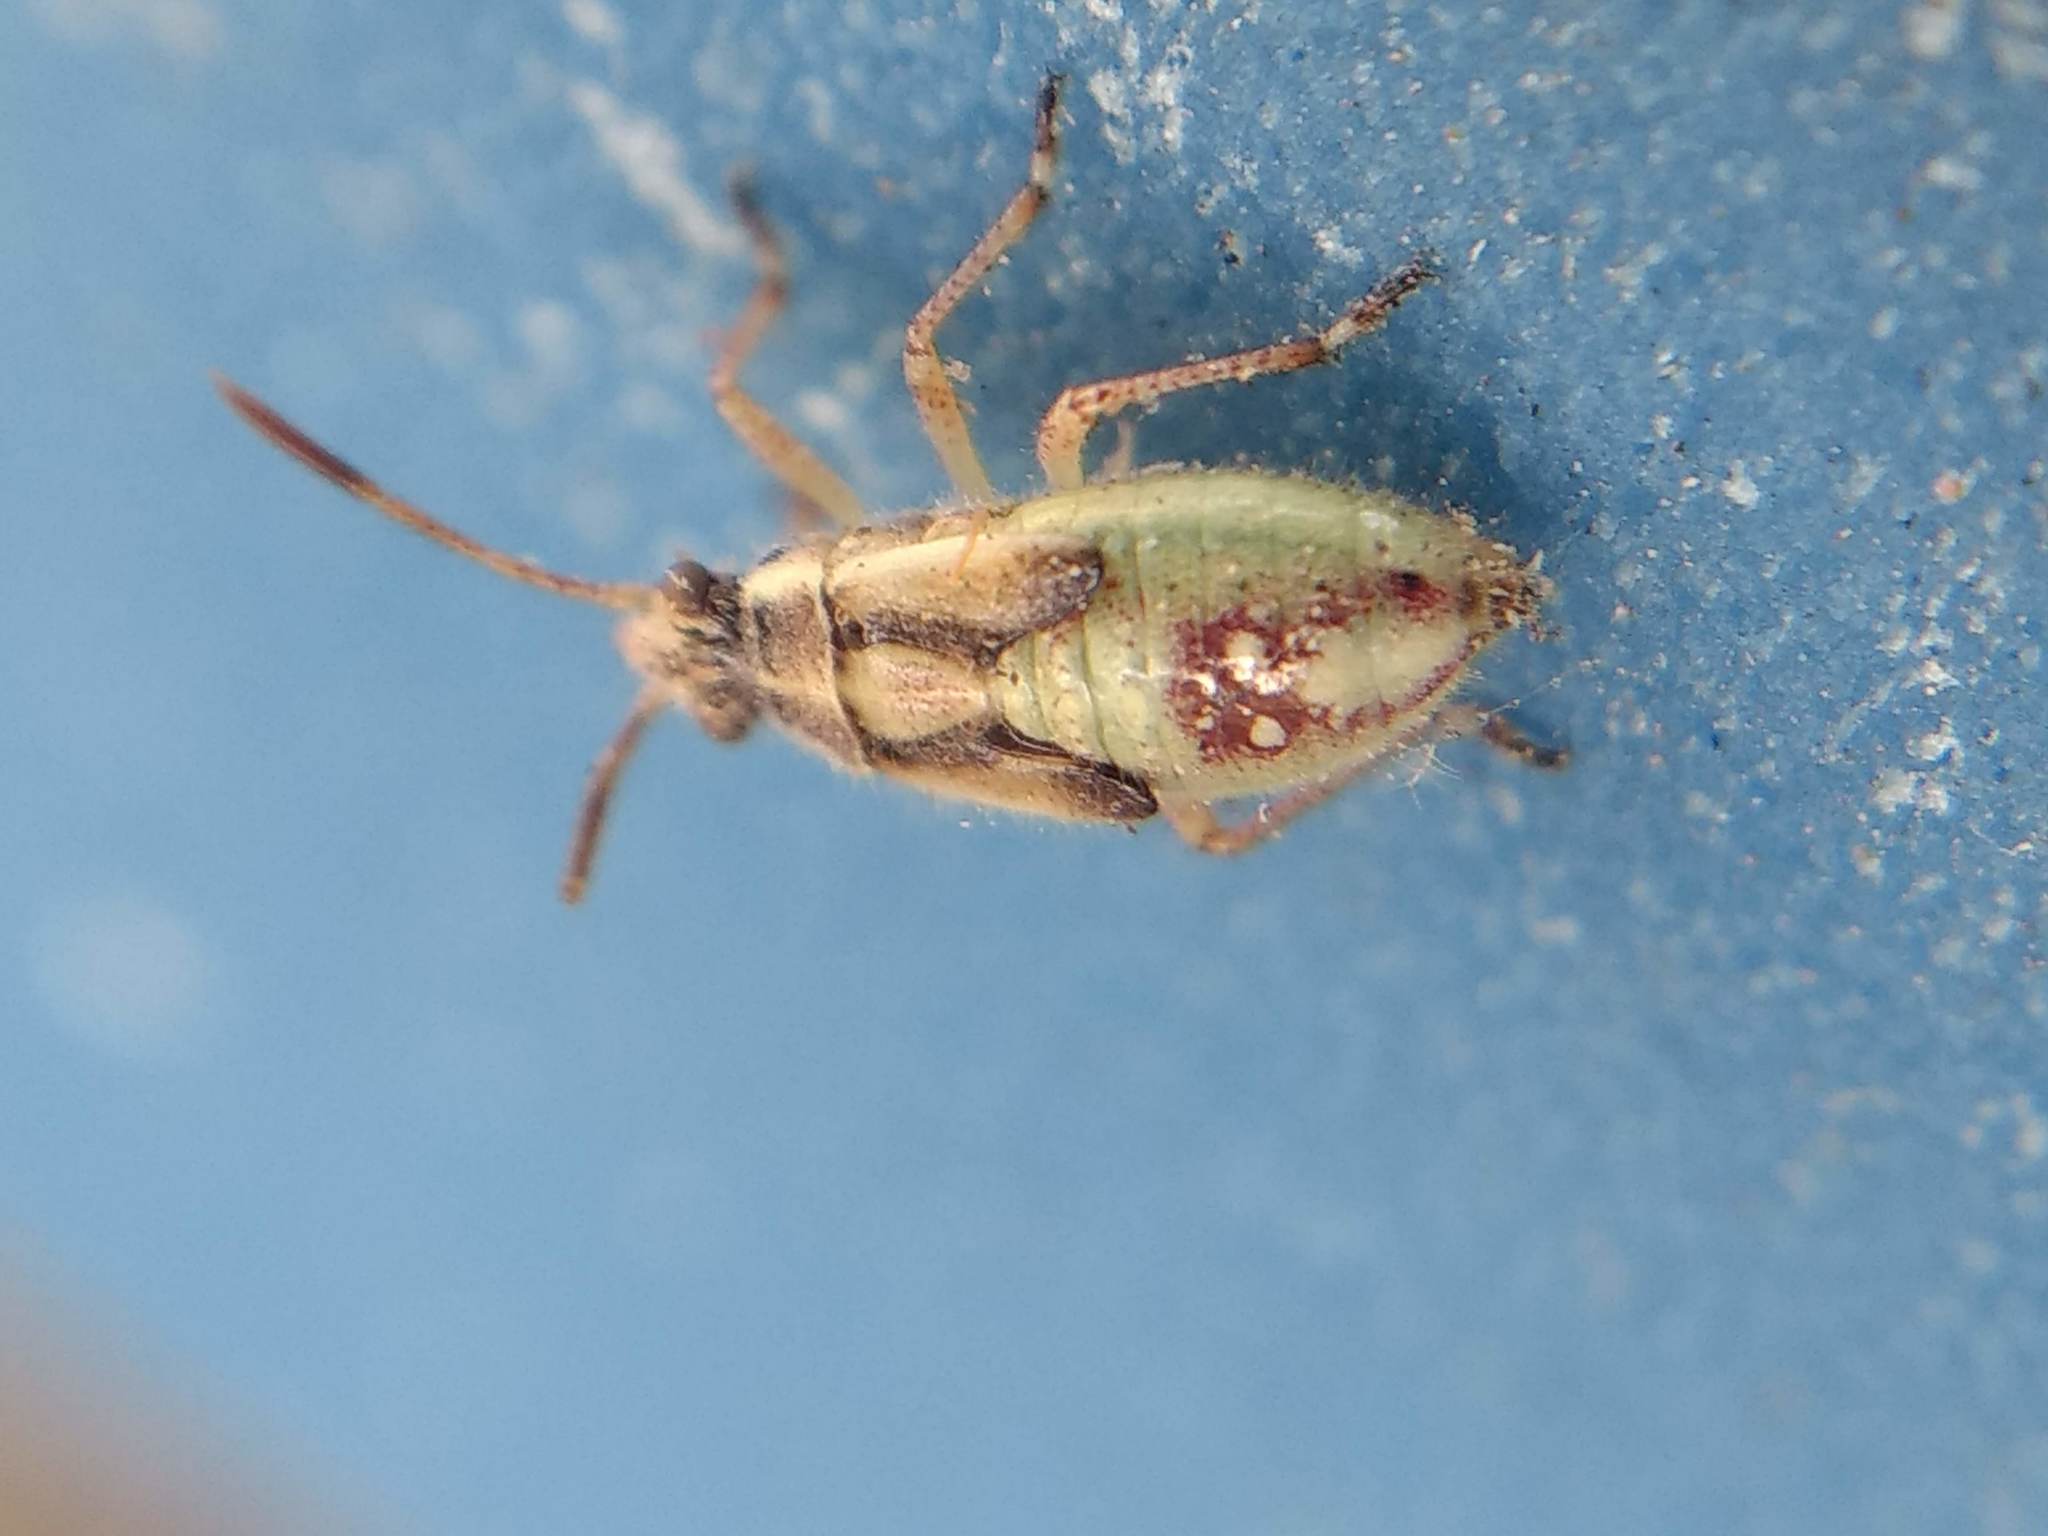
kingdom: Animalia
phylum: Arthropoda
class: Insecta
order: Hemiptera
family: Rhopalidae
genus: Liorhyssus
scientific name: Liorhyssus hyalinus
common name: Scentless plant bug
